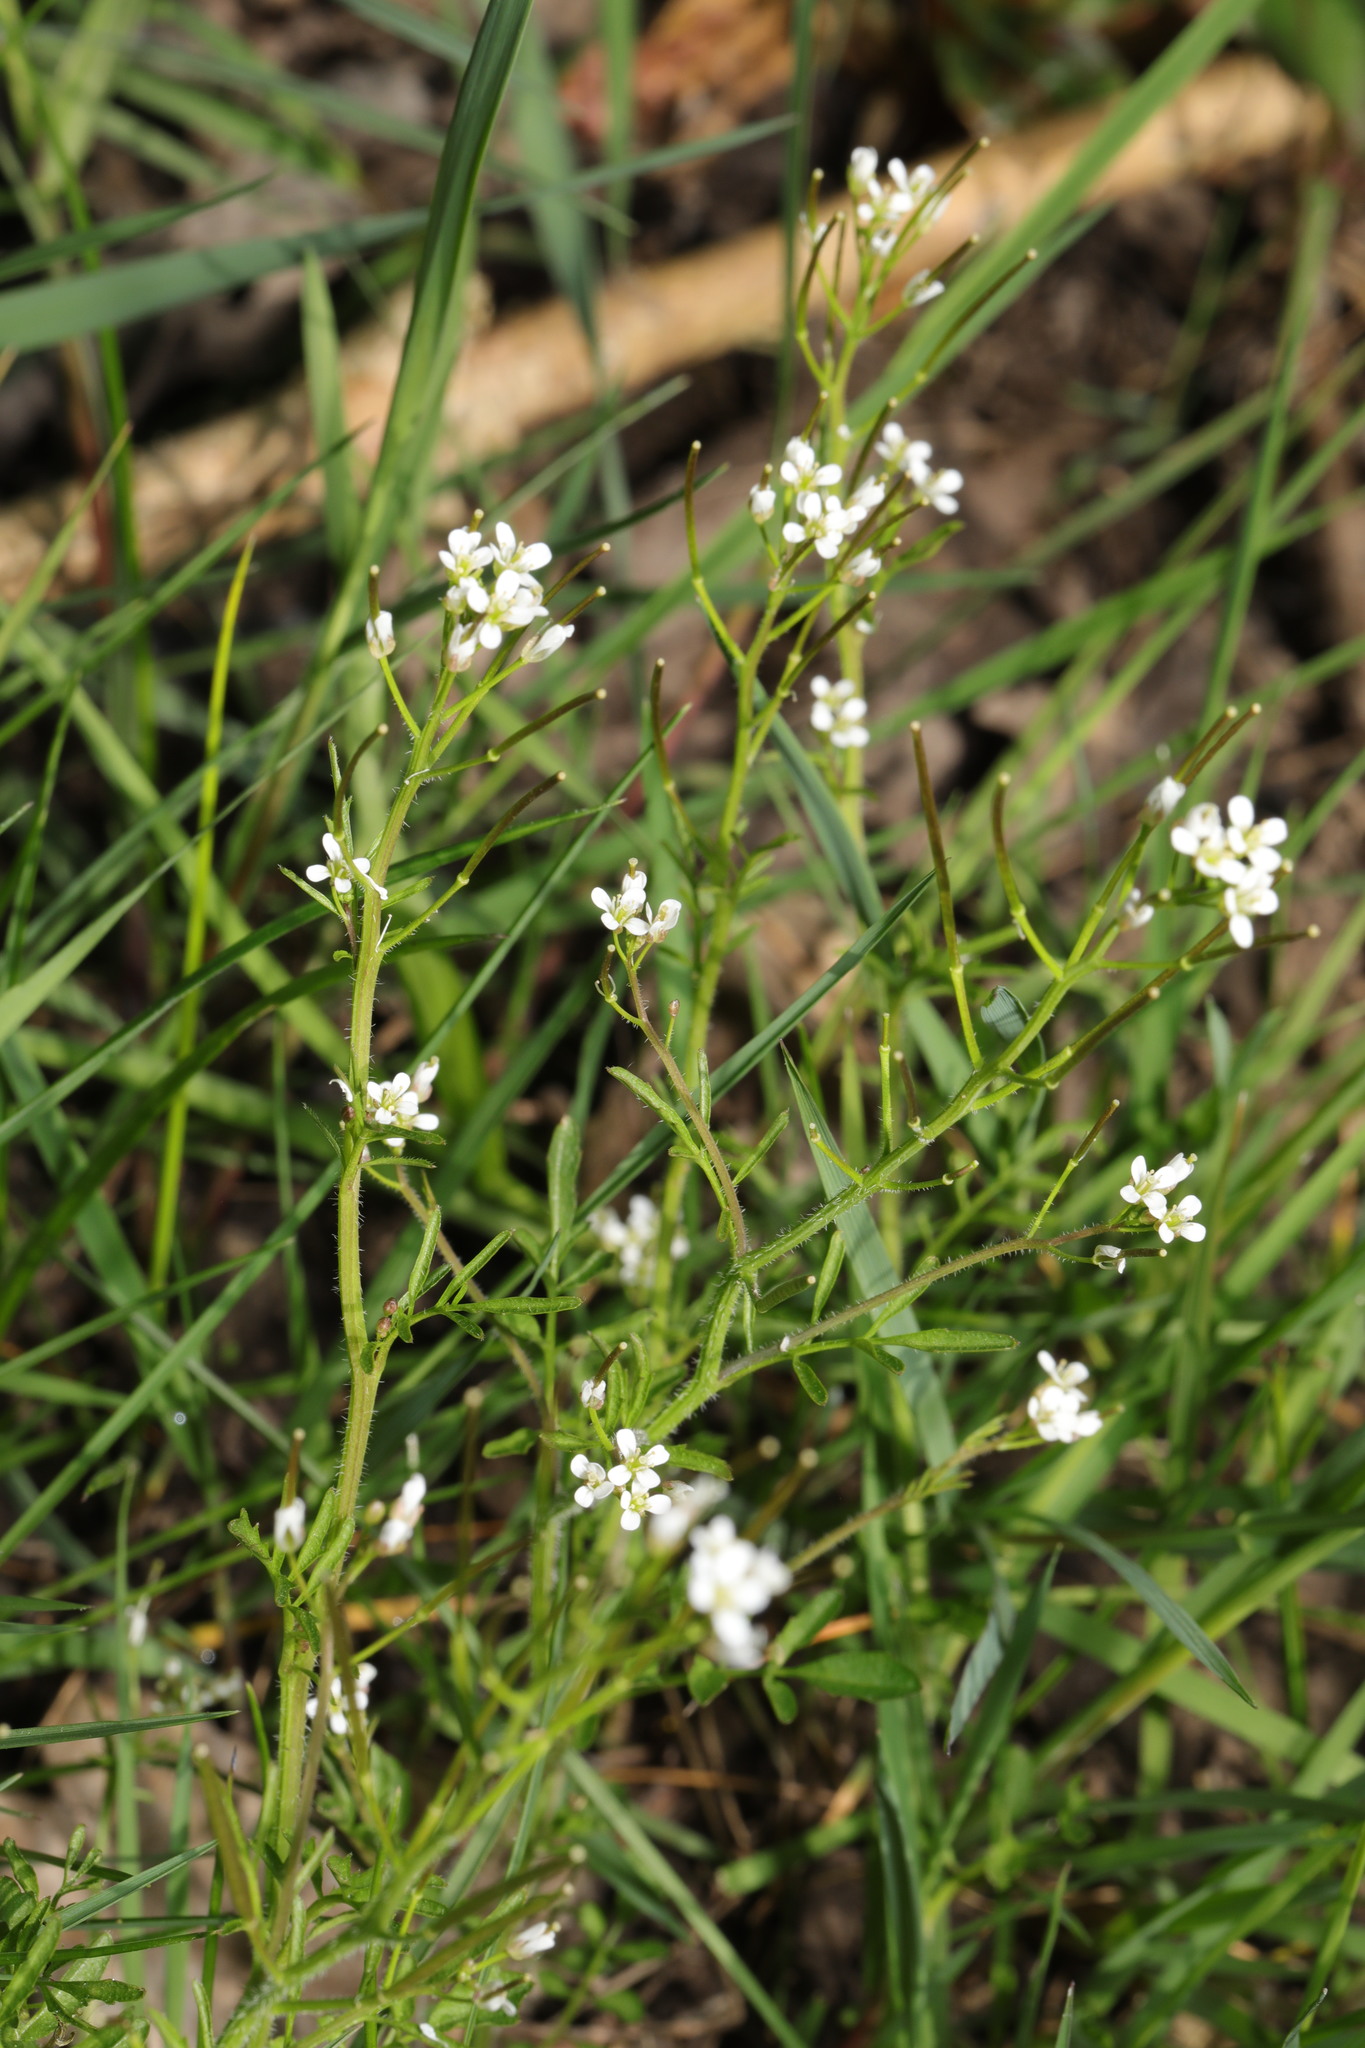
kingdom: Plantae
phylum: Tracheophyta
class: Magnoliopsida
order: Brassicales
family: Brassicaceae
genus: Cardamine
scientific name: Cardamine flexuosa
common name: Woodland bittercress
